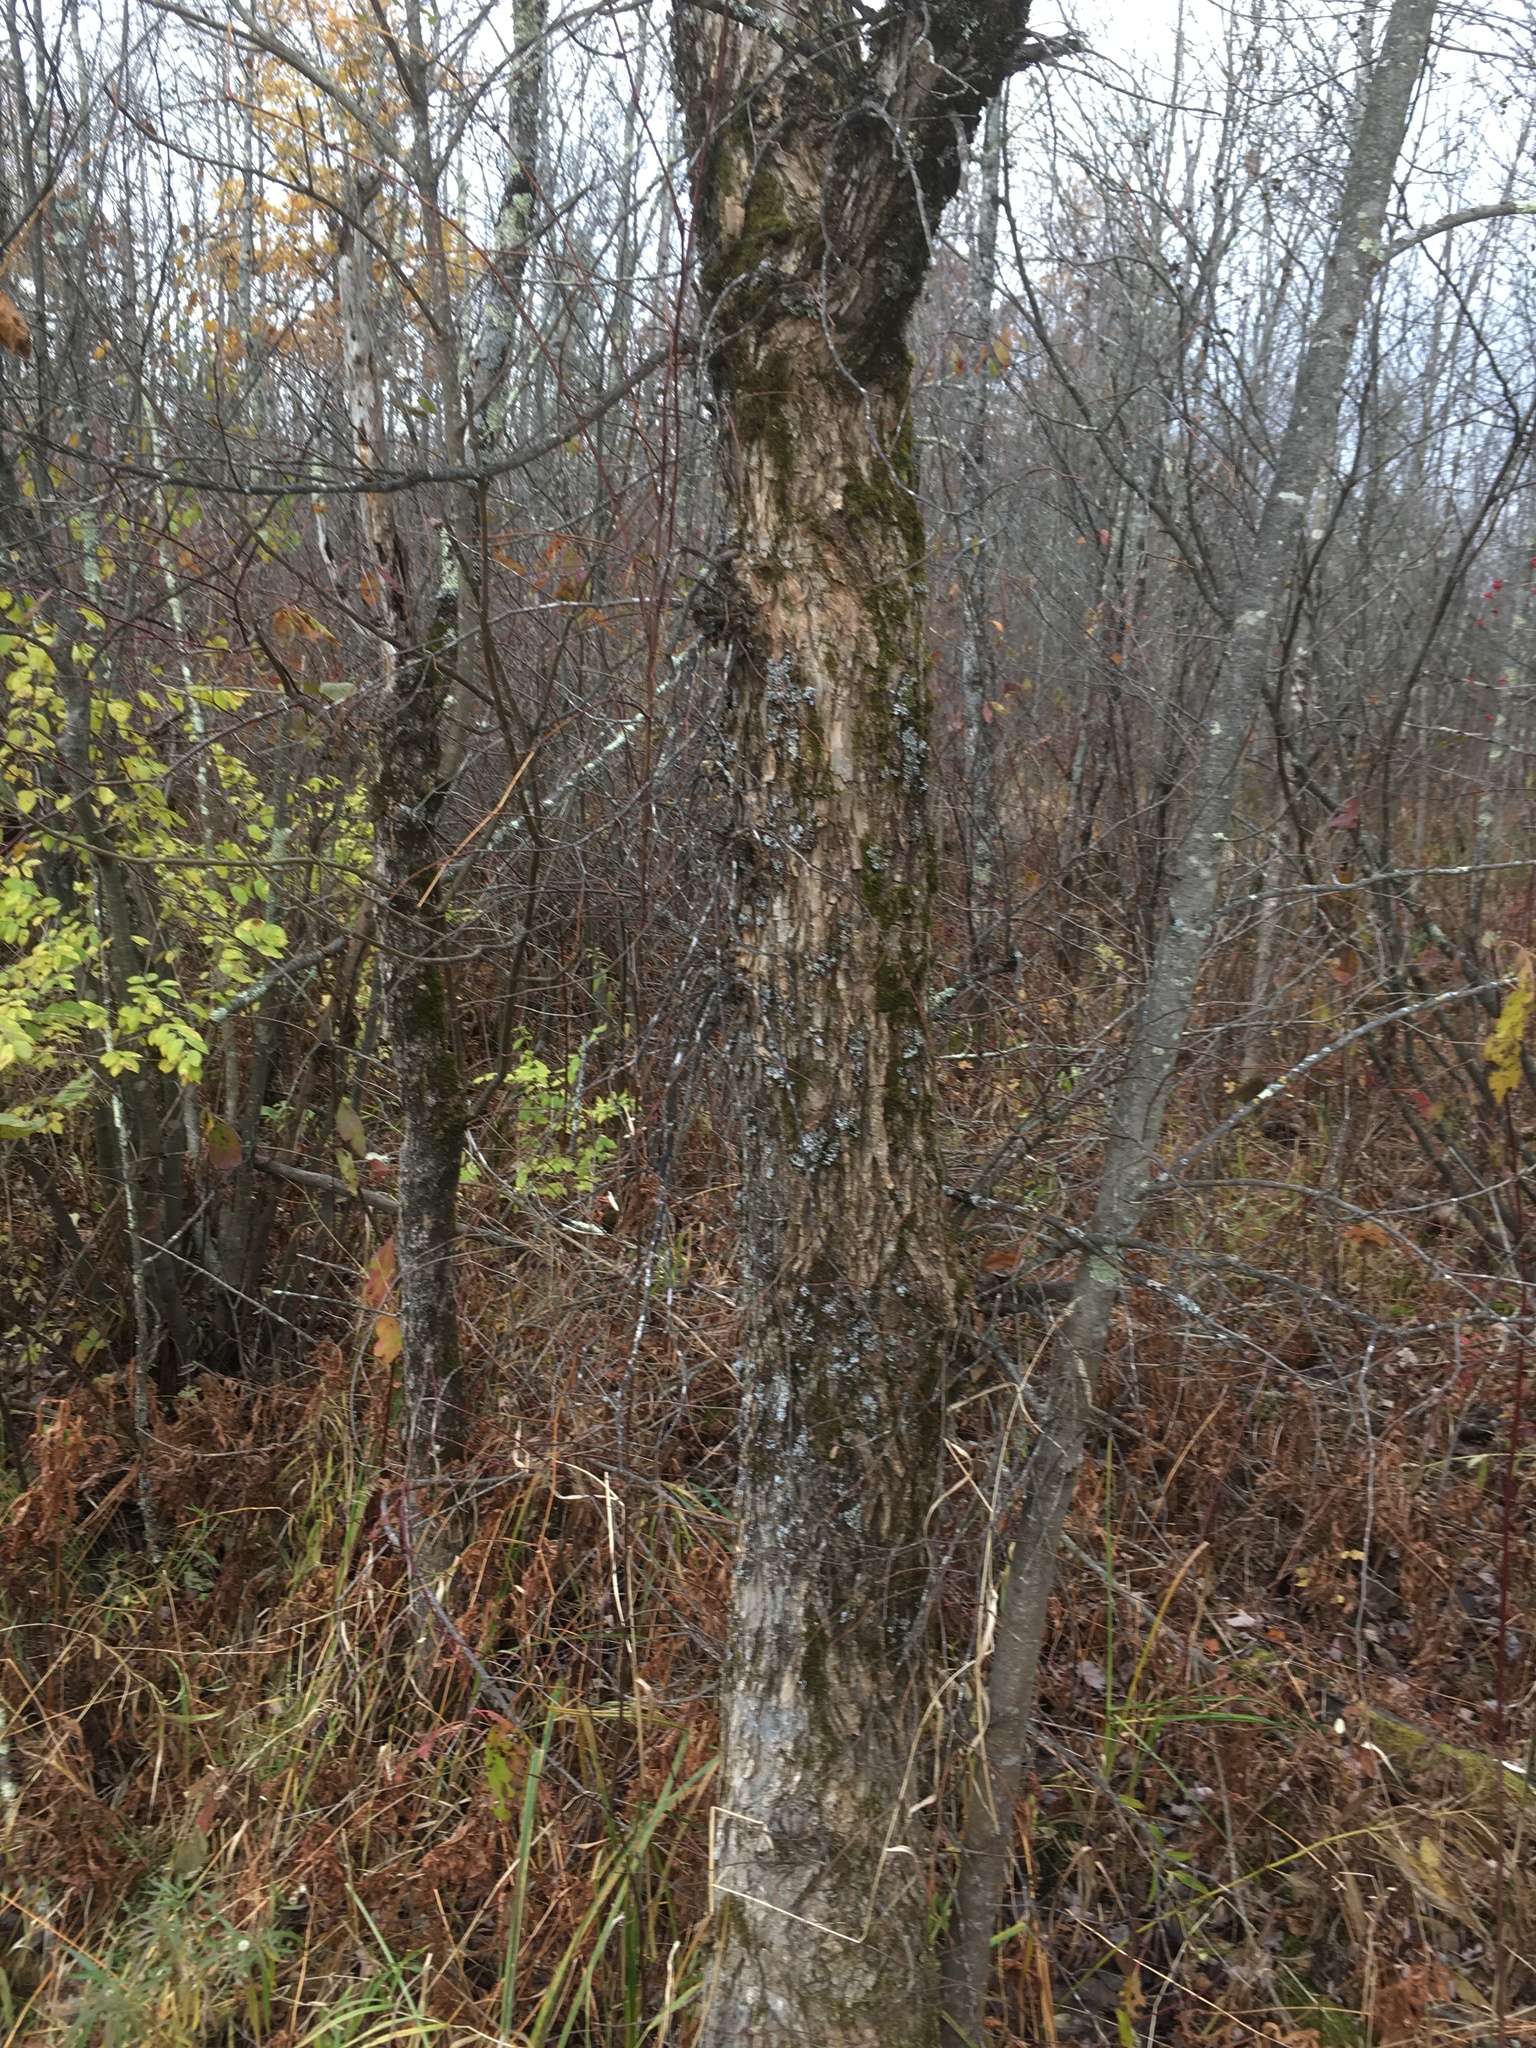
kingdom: Plantae
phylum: Tracheophyta
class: Magnoliopsida
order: Rosales
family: Ulmaceae
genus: Ulmus
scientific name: Ulmus americana
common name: American elm
